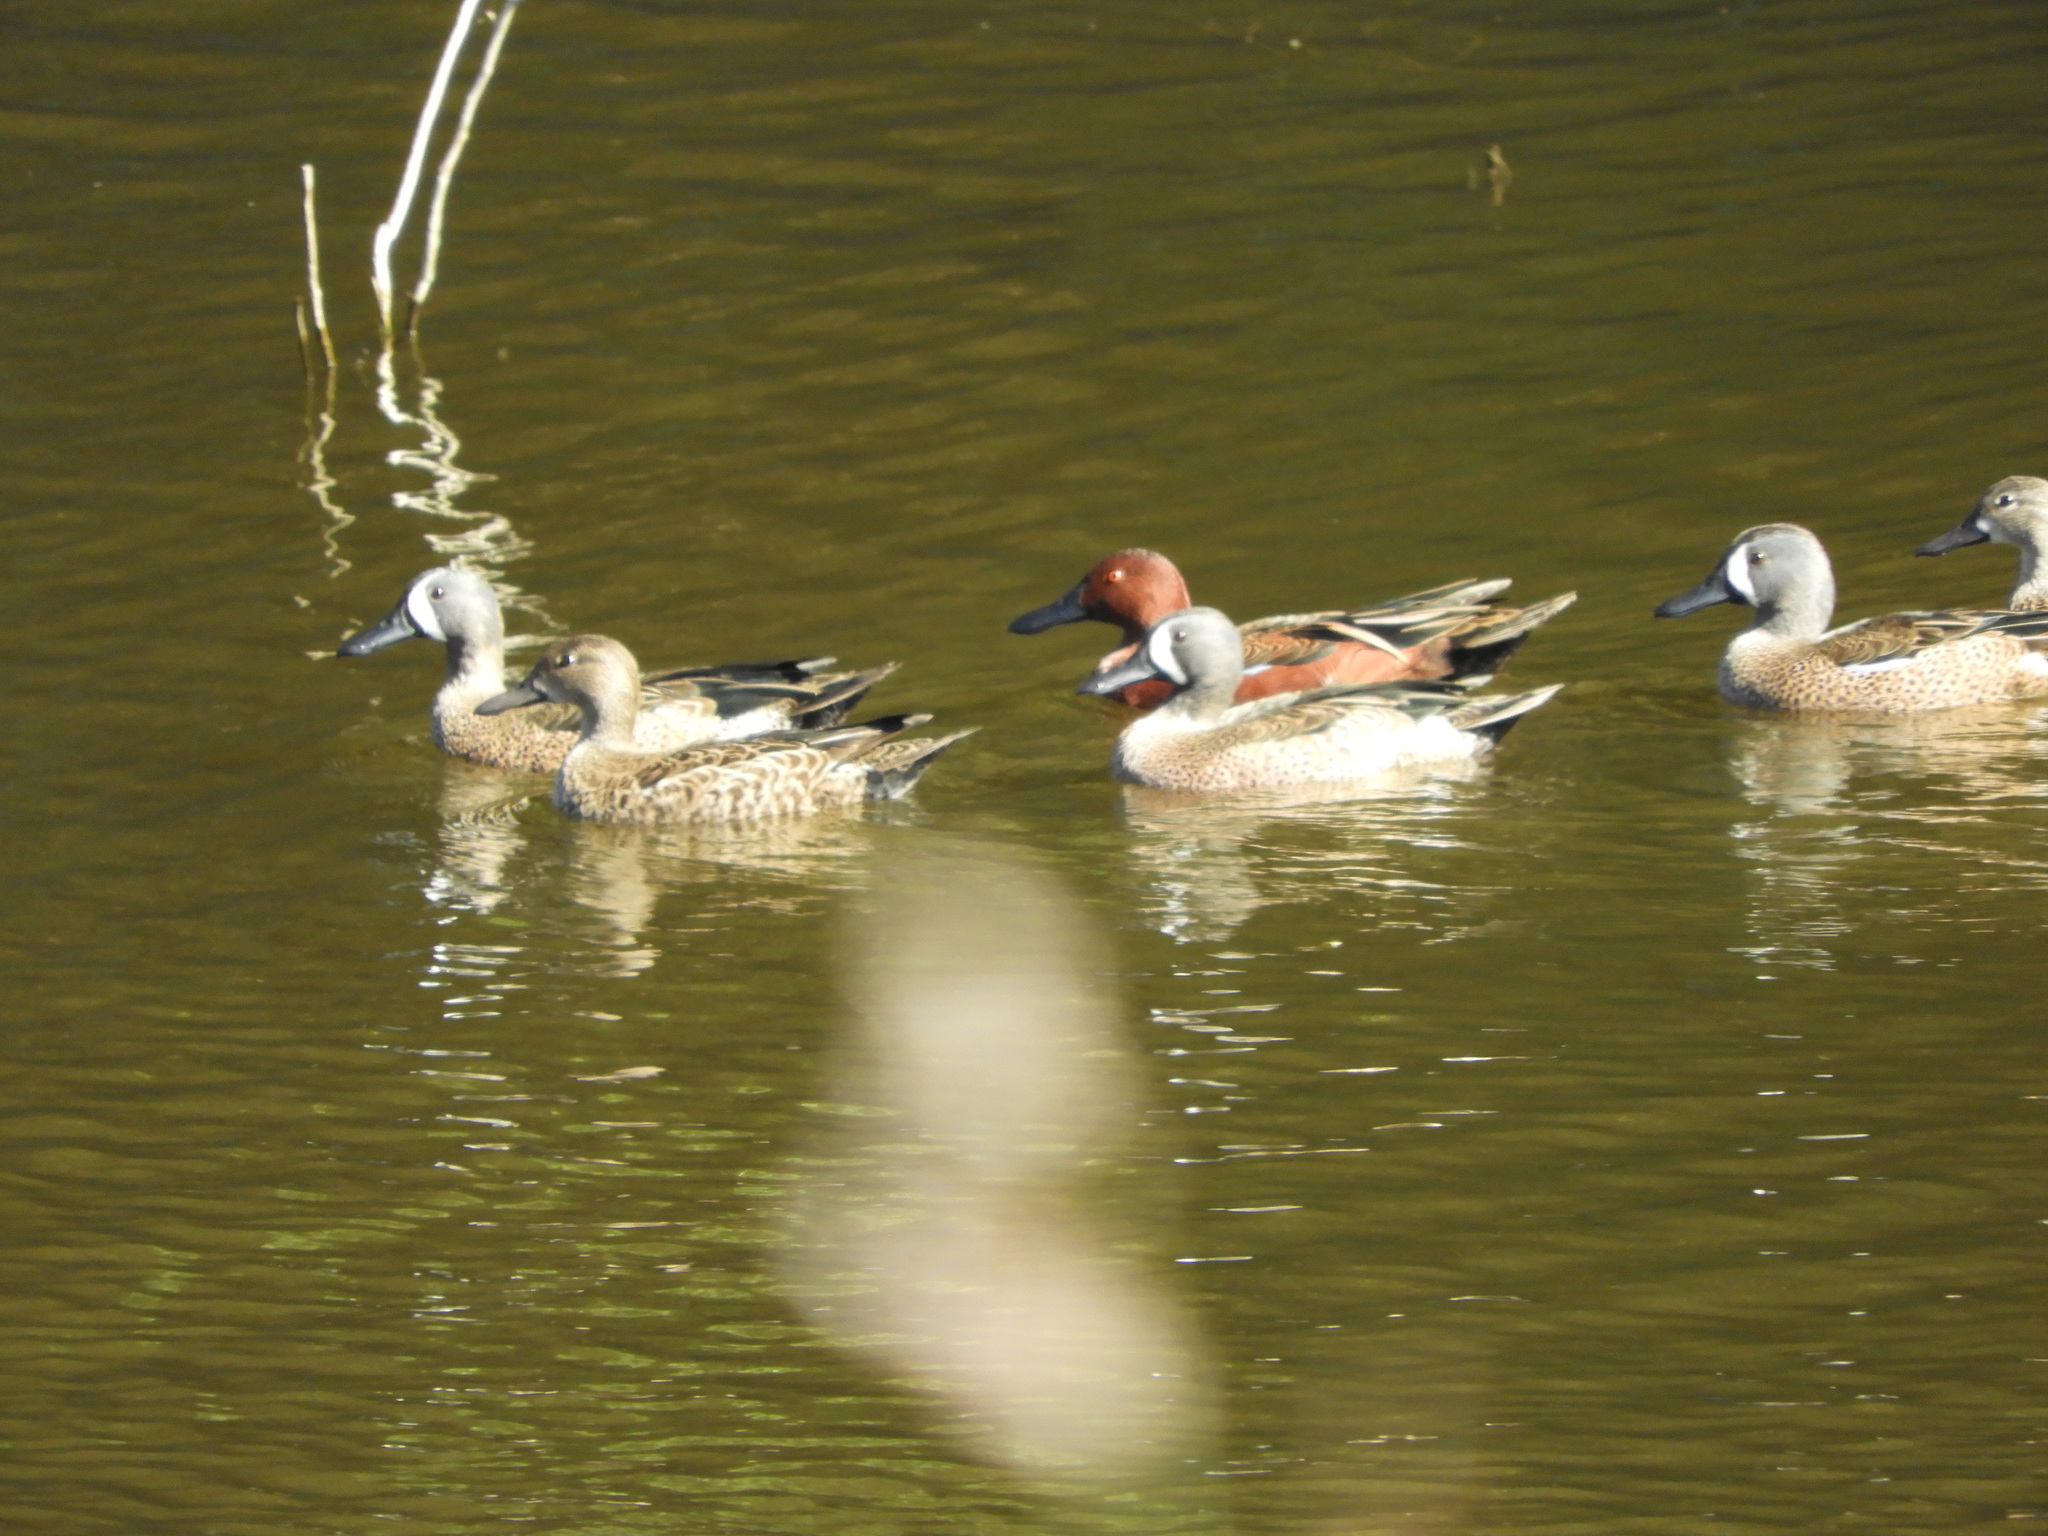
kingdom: Animalia
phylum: Chordata
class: Aves
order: Anseriformes
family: Anatidae
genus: Spatula
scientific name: Spatula discors
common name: Blue-winged teal
